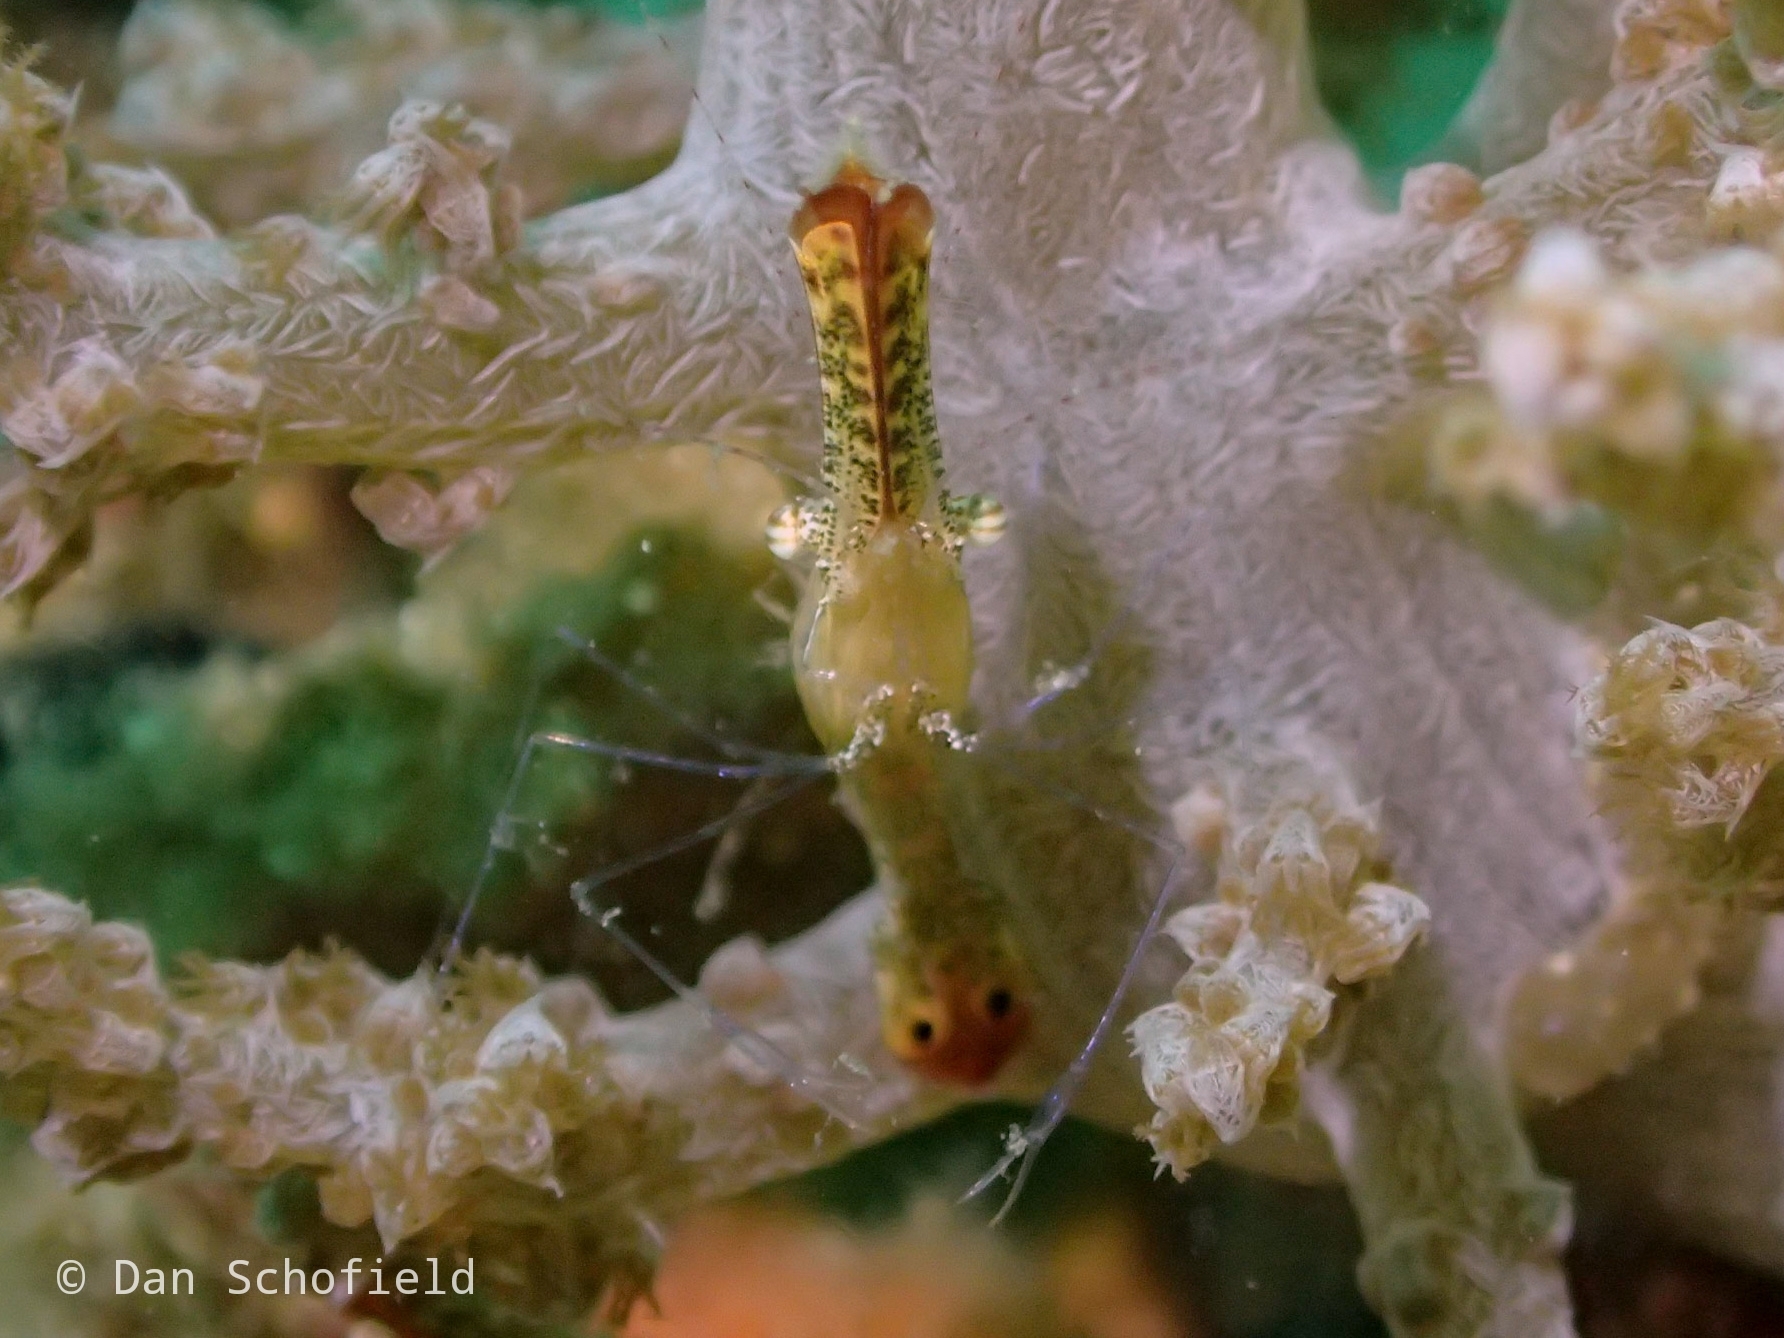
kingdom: Animalia
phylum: Arthropoda
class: Malacostraca
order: Decapoda
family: Palaemonidae
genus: Leander
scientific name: Leander plumosus
